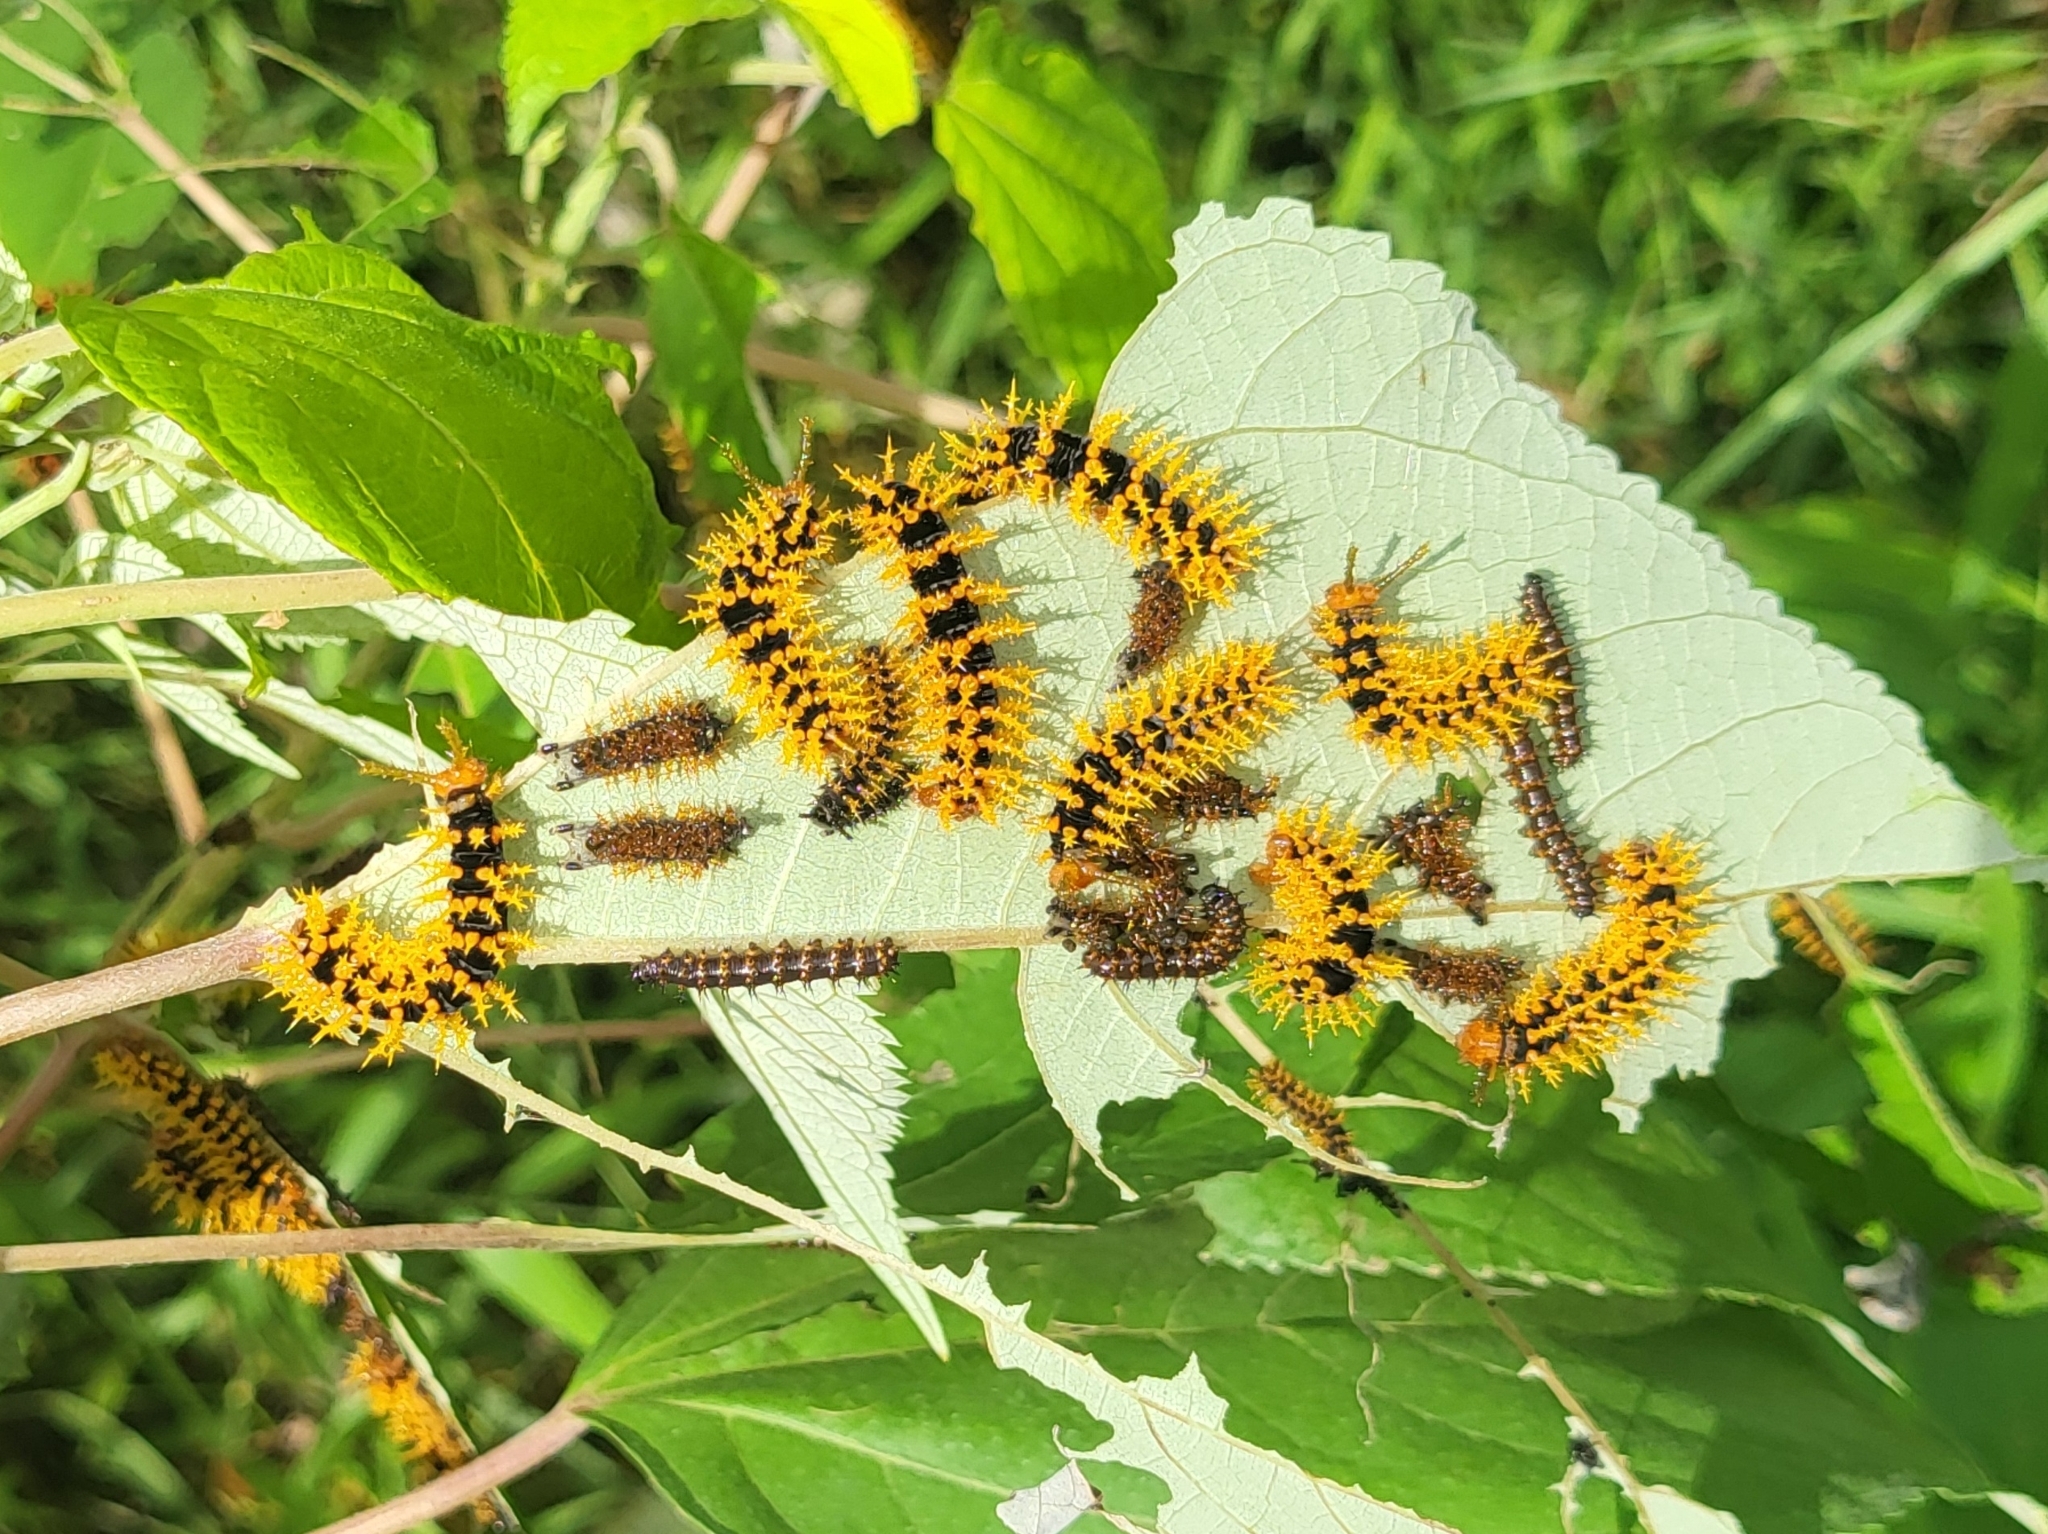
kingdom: Animalia
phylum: Arthropoda
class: Insecta
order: Lepidoptera
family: Nymphalidae
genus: Hypolimnas
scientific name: Hypolimnas anomala
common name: Malayan eggfly
